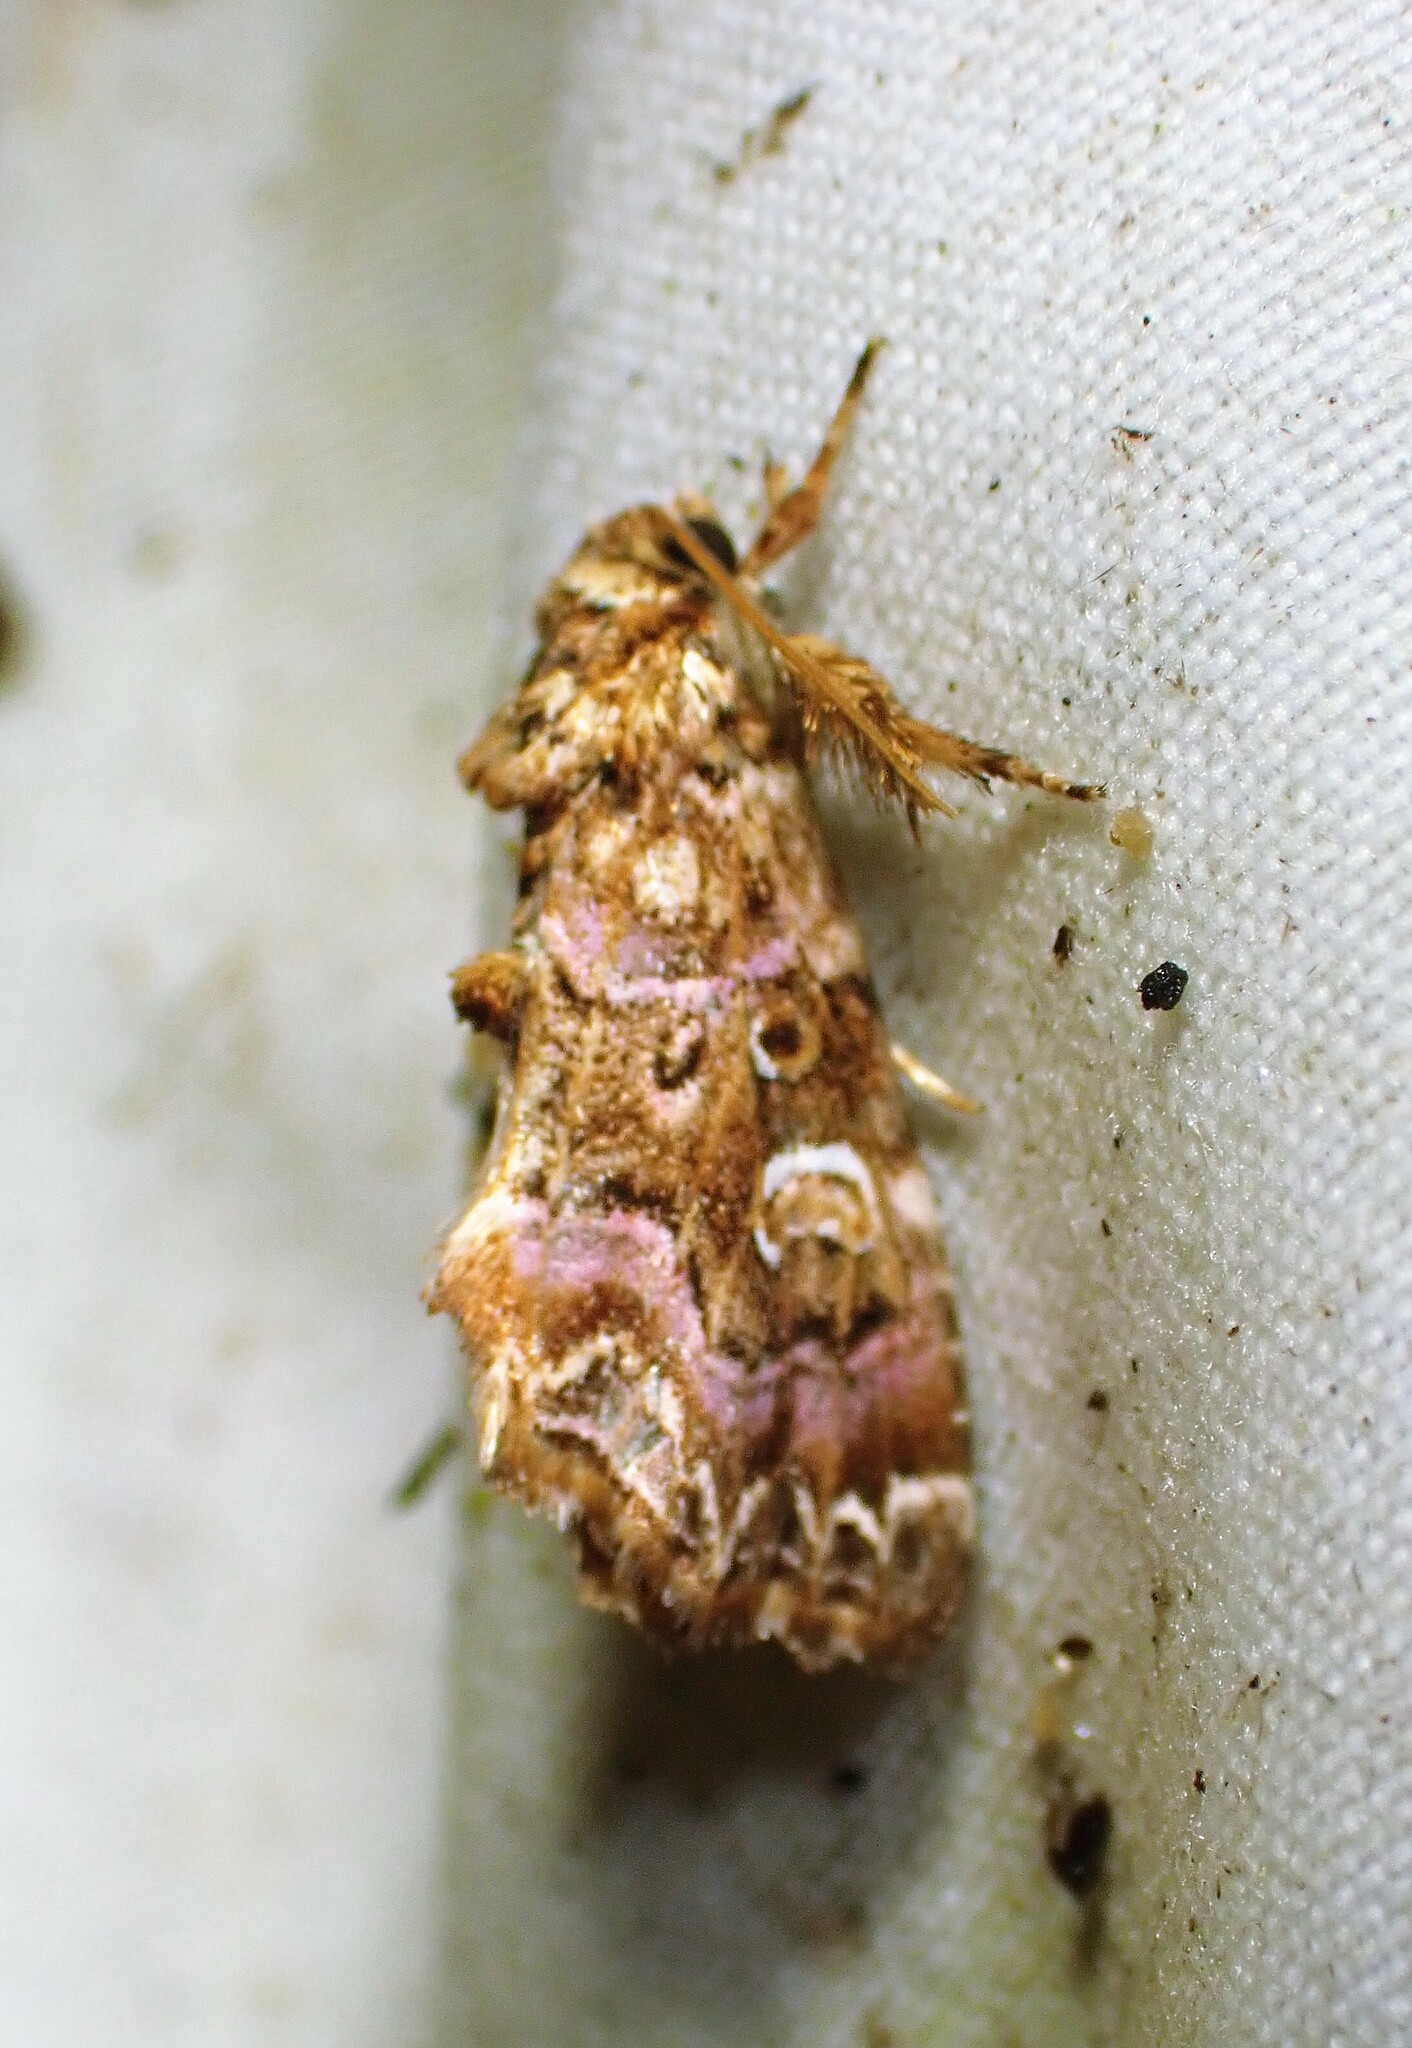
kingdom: Animalia
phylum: Arthropoda
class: Insecta
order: Lepidoptera
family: Noctuidae
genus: Callopistria
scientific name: Callopistria mollissima
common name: Pink-shaded fern moth
